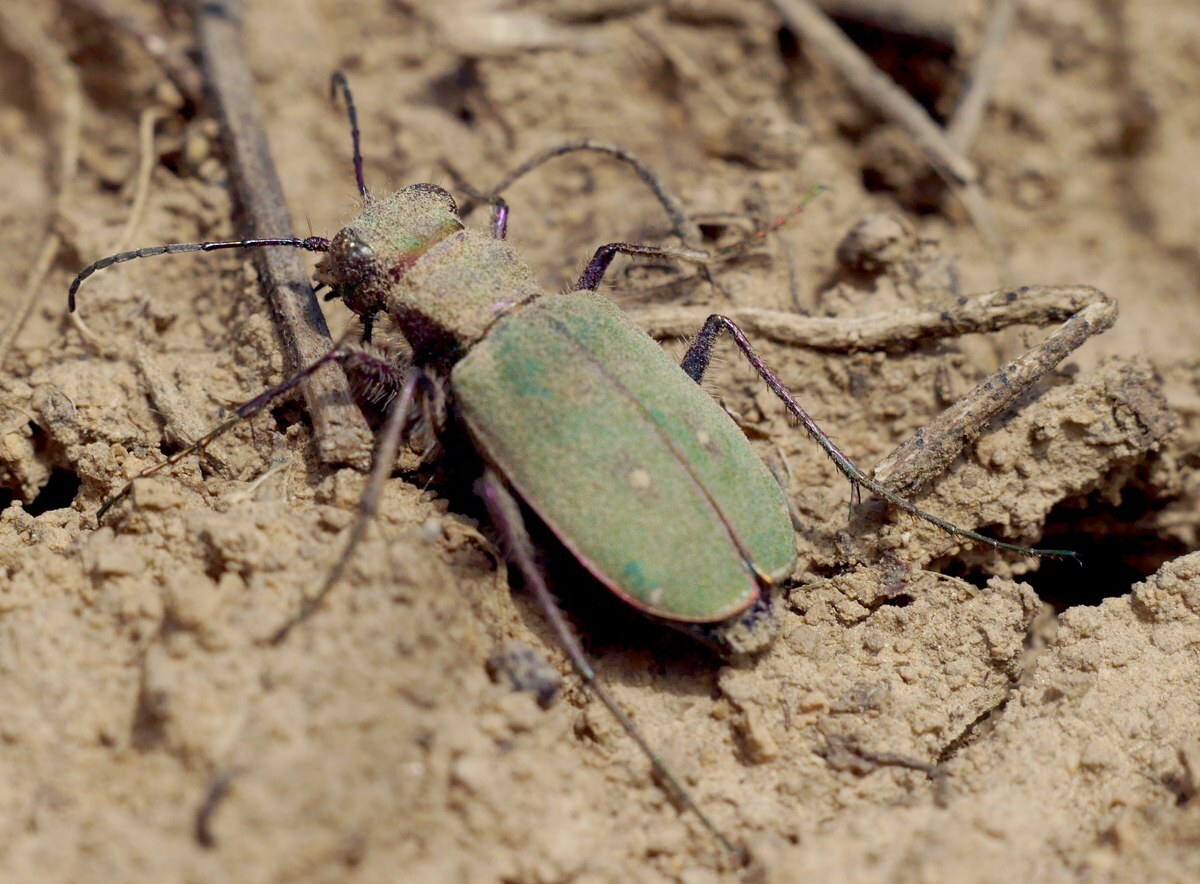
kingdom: Animalia
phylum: Arthropoda
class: Insecta
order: Coleoptera
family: Carabidae
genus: Cicindela
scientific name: Cicindela campestris
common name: Common tiger beetle
